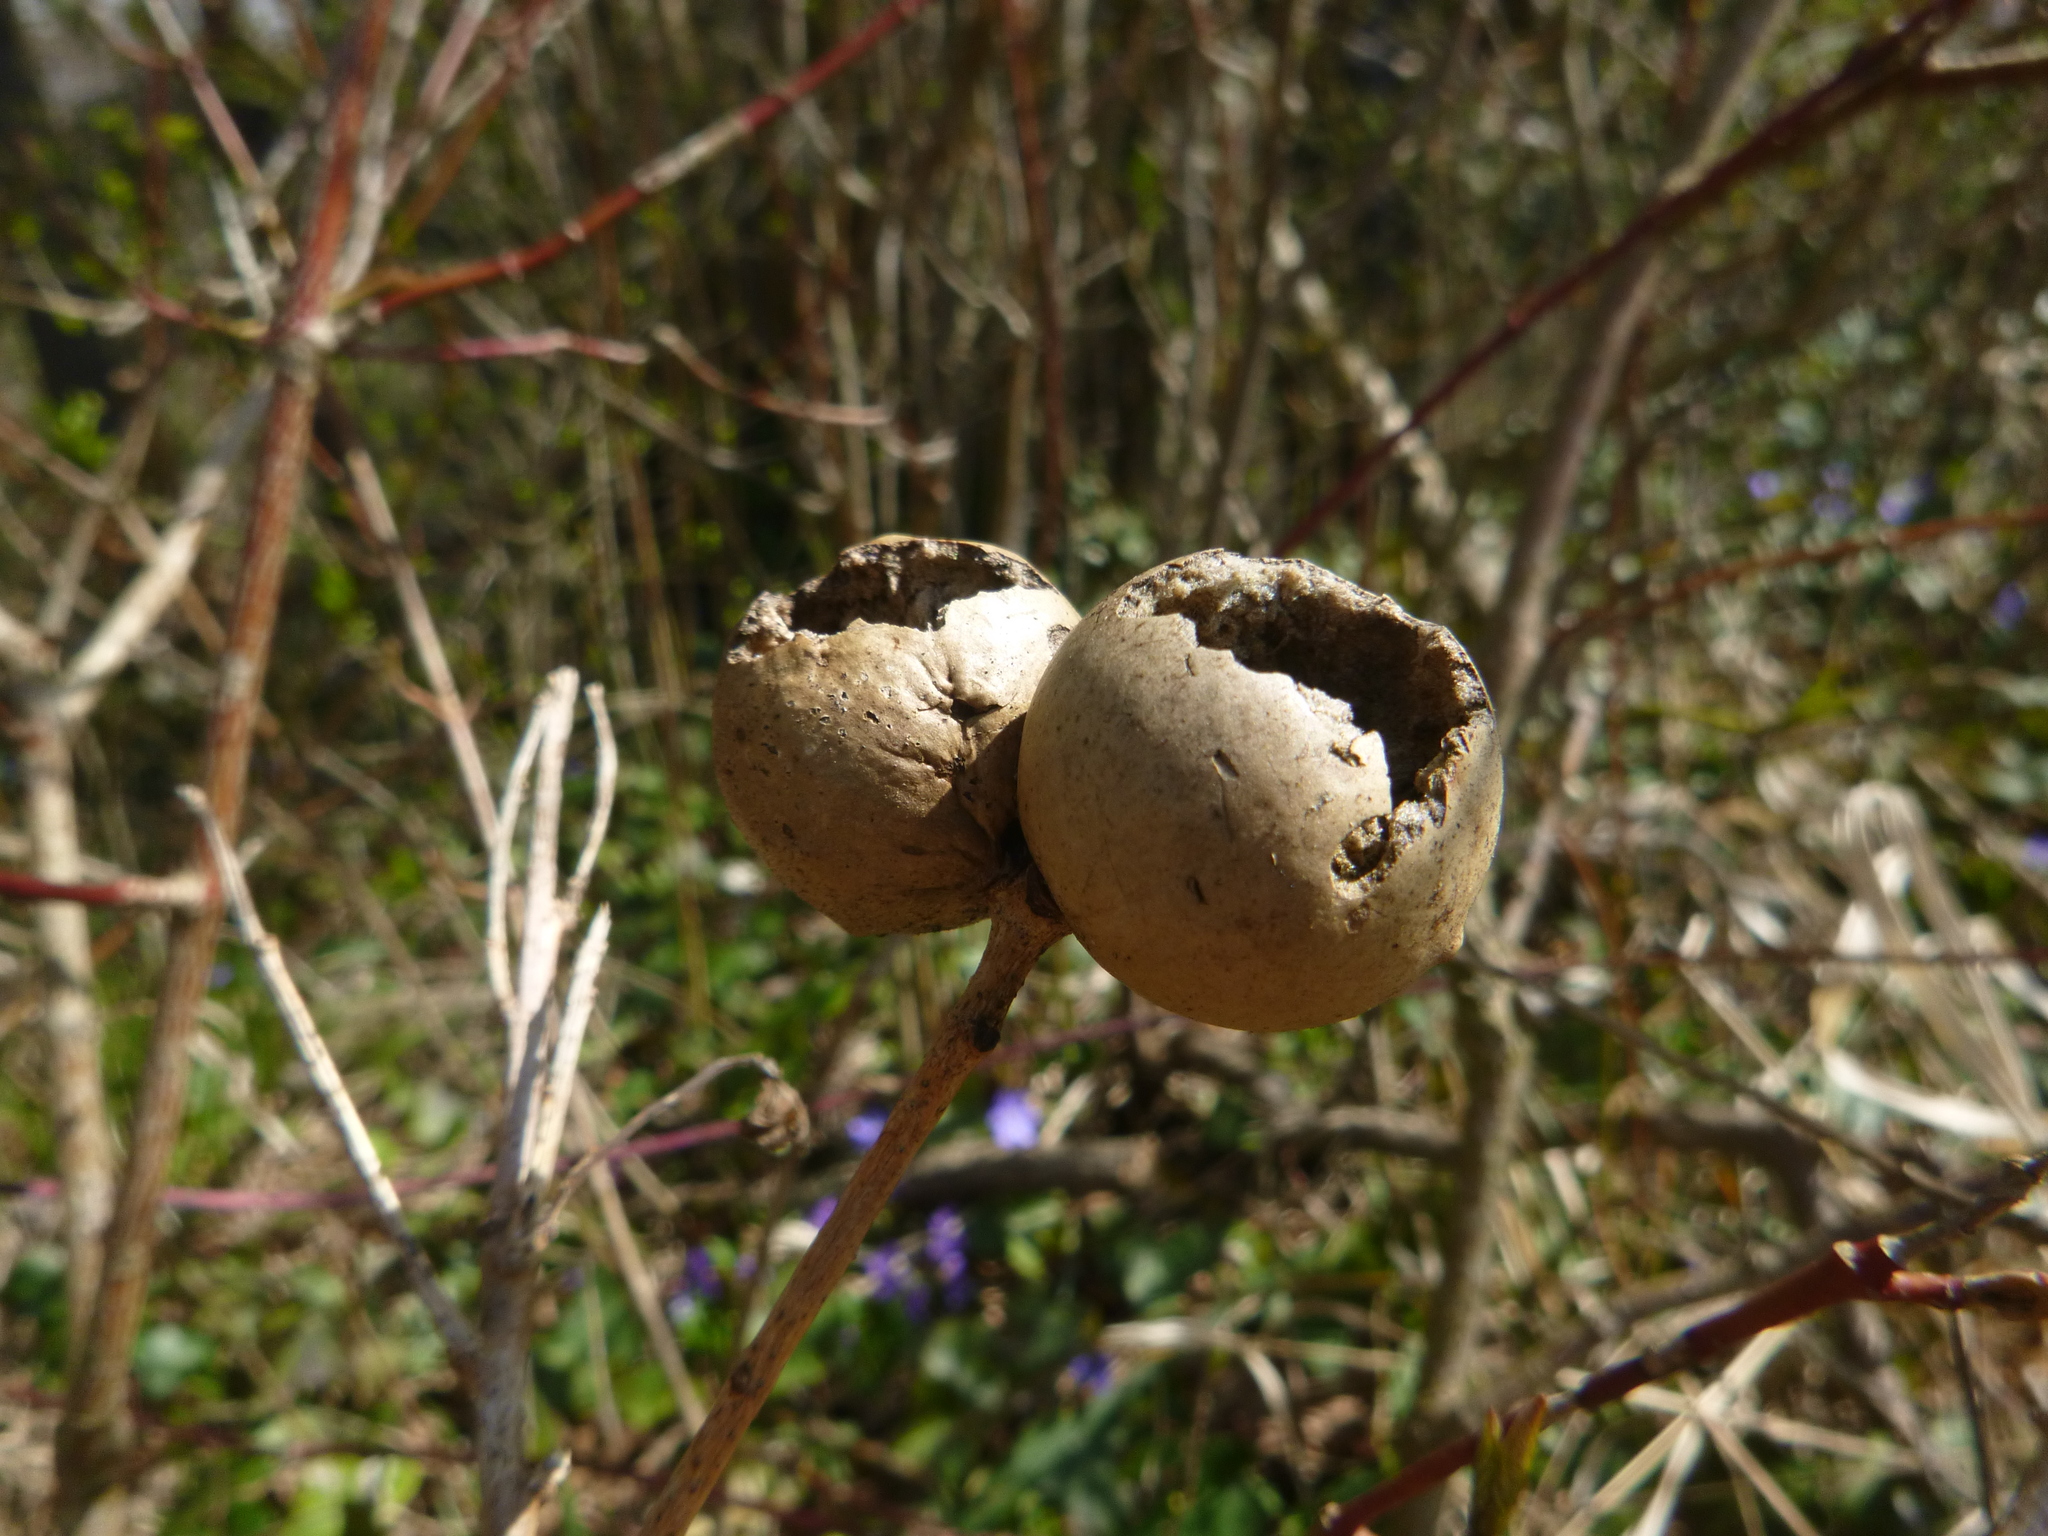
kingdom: Animalia
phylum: Arthropoda
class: Insecta
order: Hymenoptera
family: Cynipidae
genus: Andricus
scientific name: Andricus kollari
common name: Marble gall
